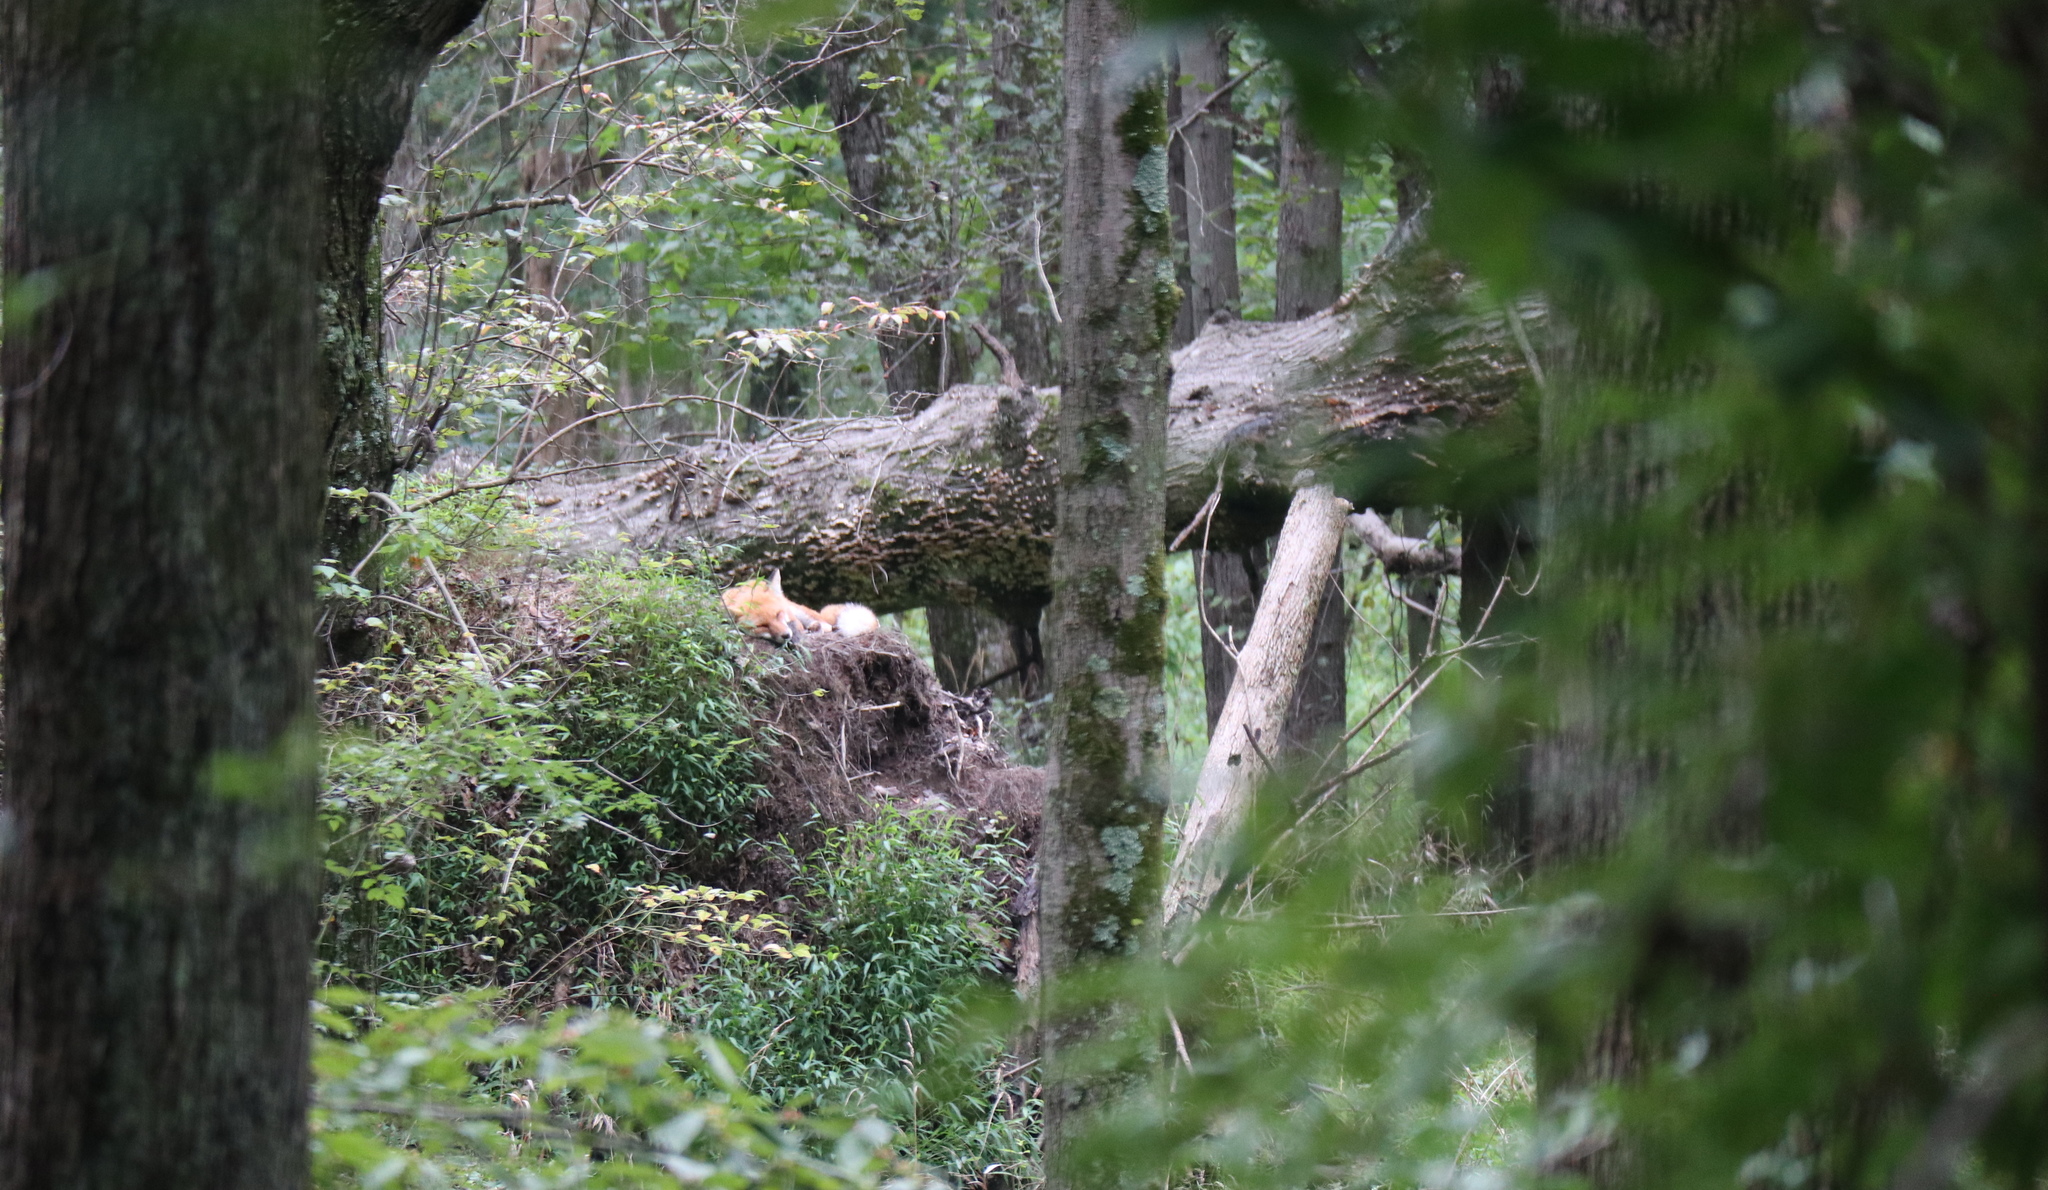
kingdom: Animalia
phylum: Chordata
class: Mammalia
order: Carnivora
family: Canidae
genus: Vulpes
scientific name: Vulpes vulpes
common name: Red fox
